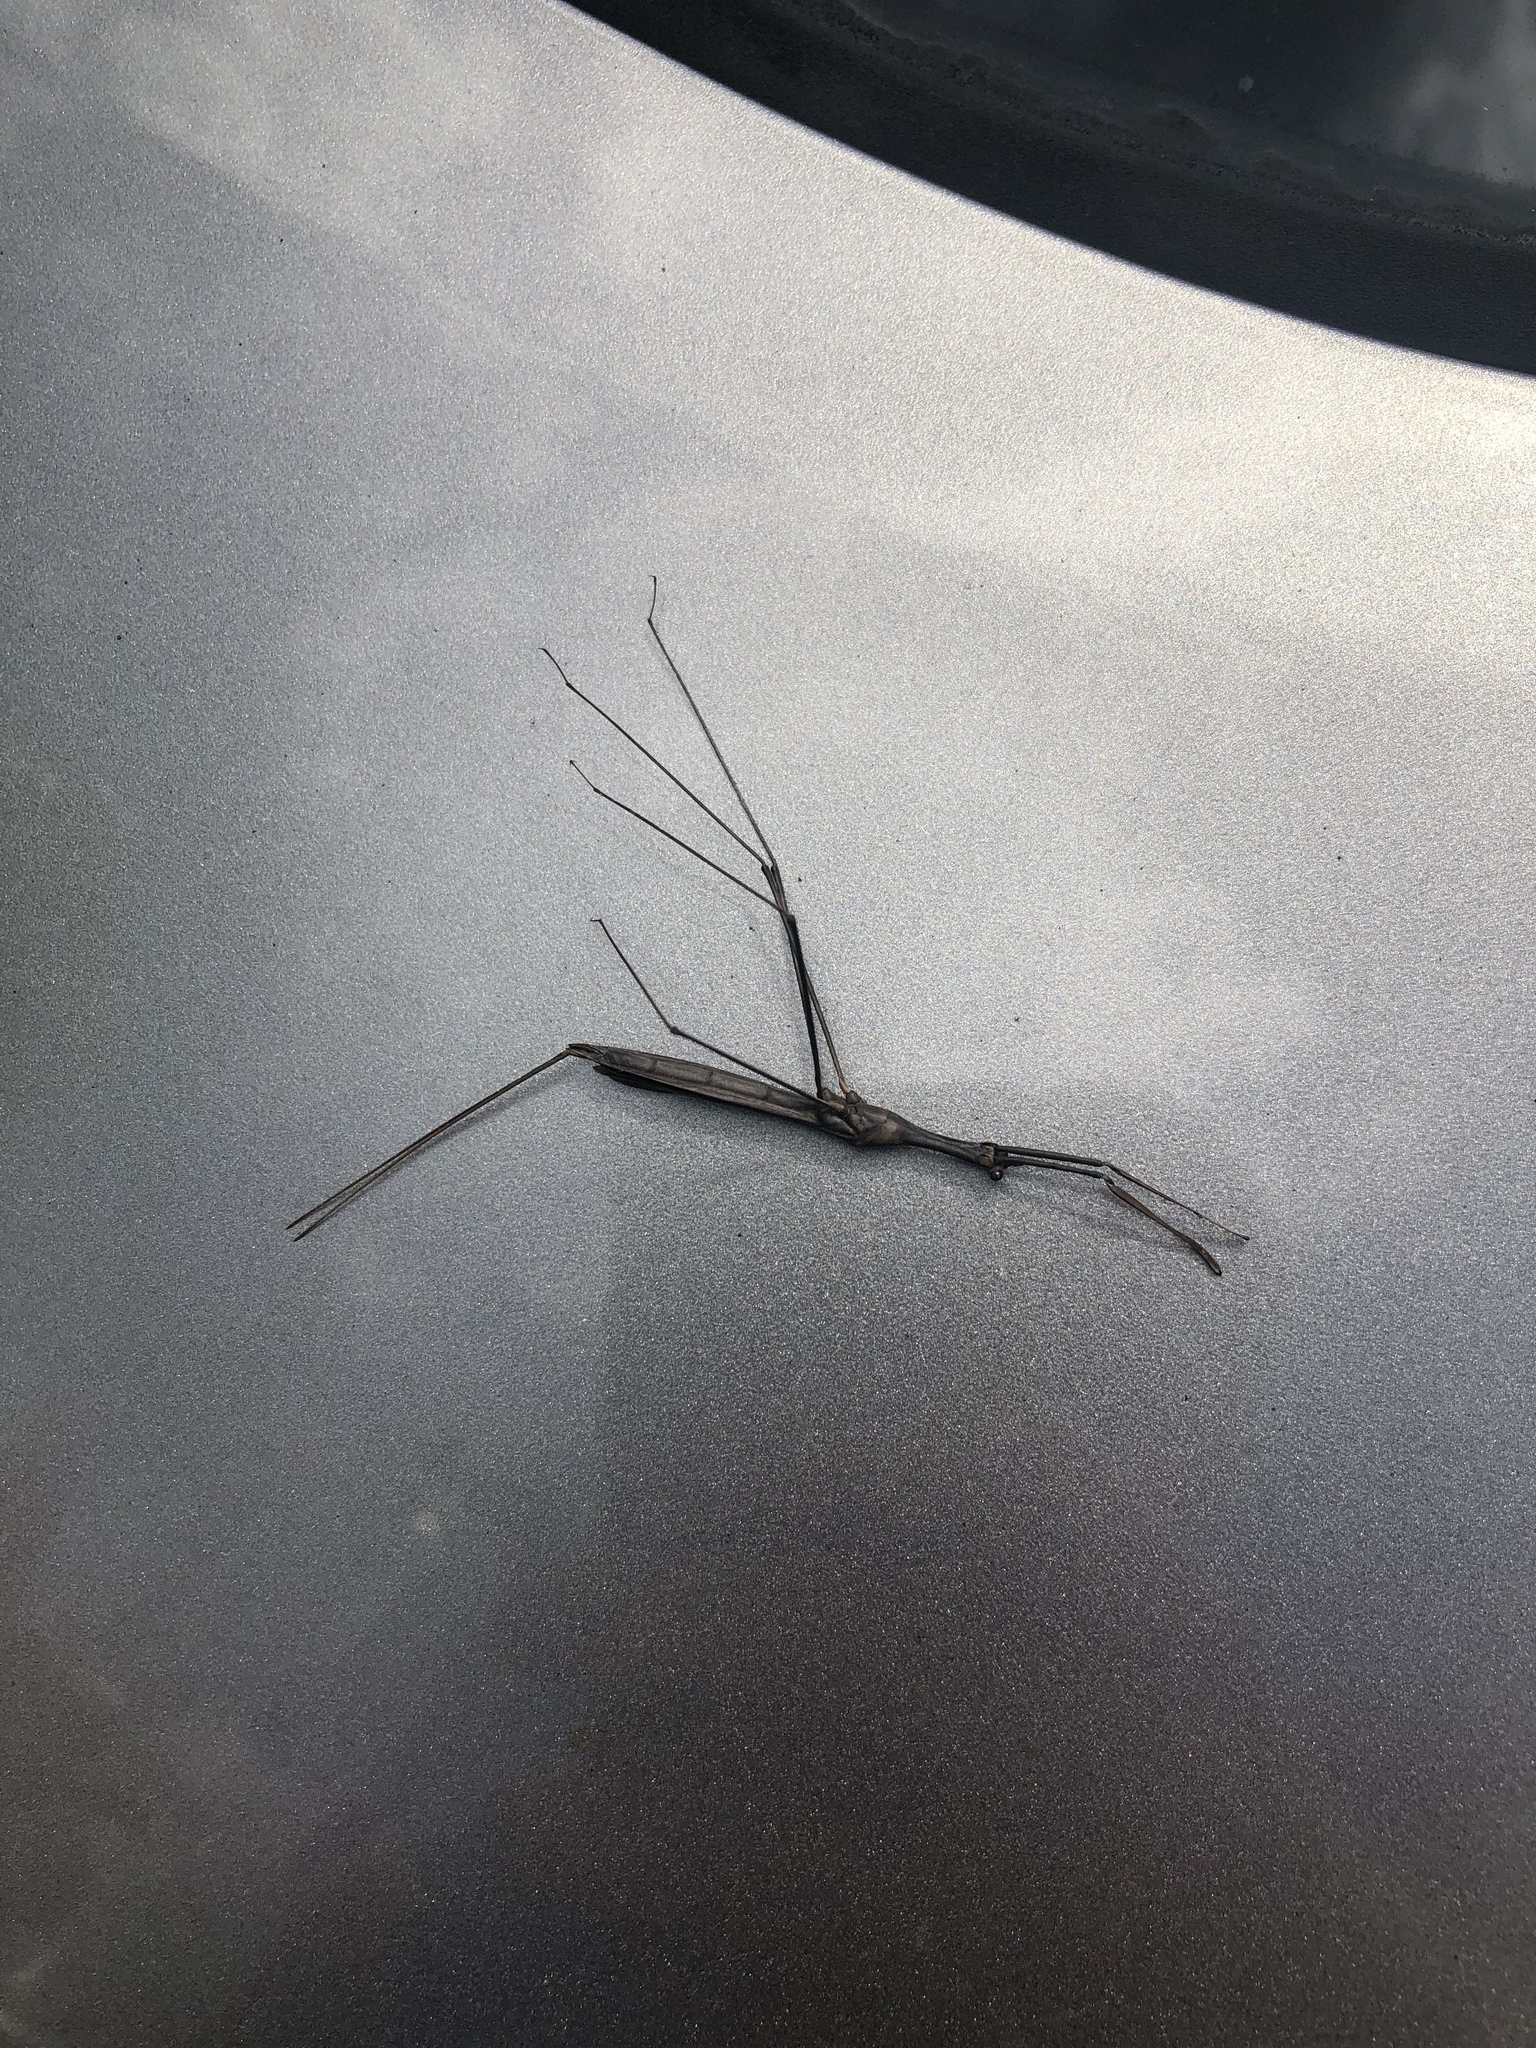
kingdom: Animalia
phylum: Arthropoda
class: Insecta
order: Hemiptera
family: Nepidae
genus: Ranatra
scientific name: Ranatra buenoi
